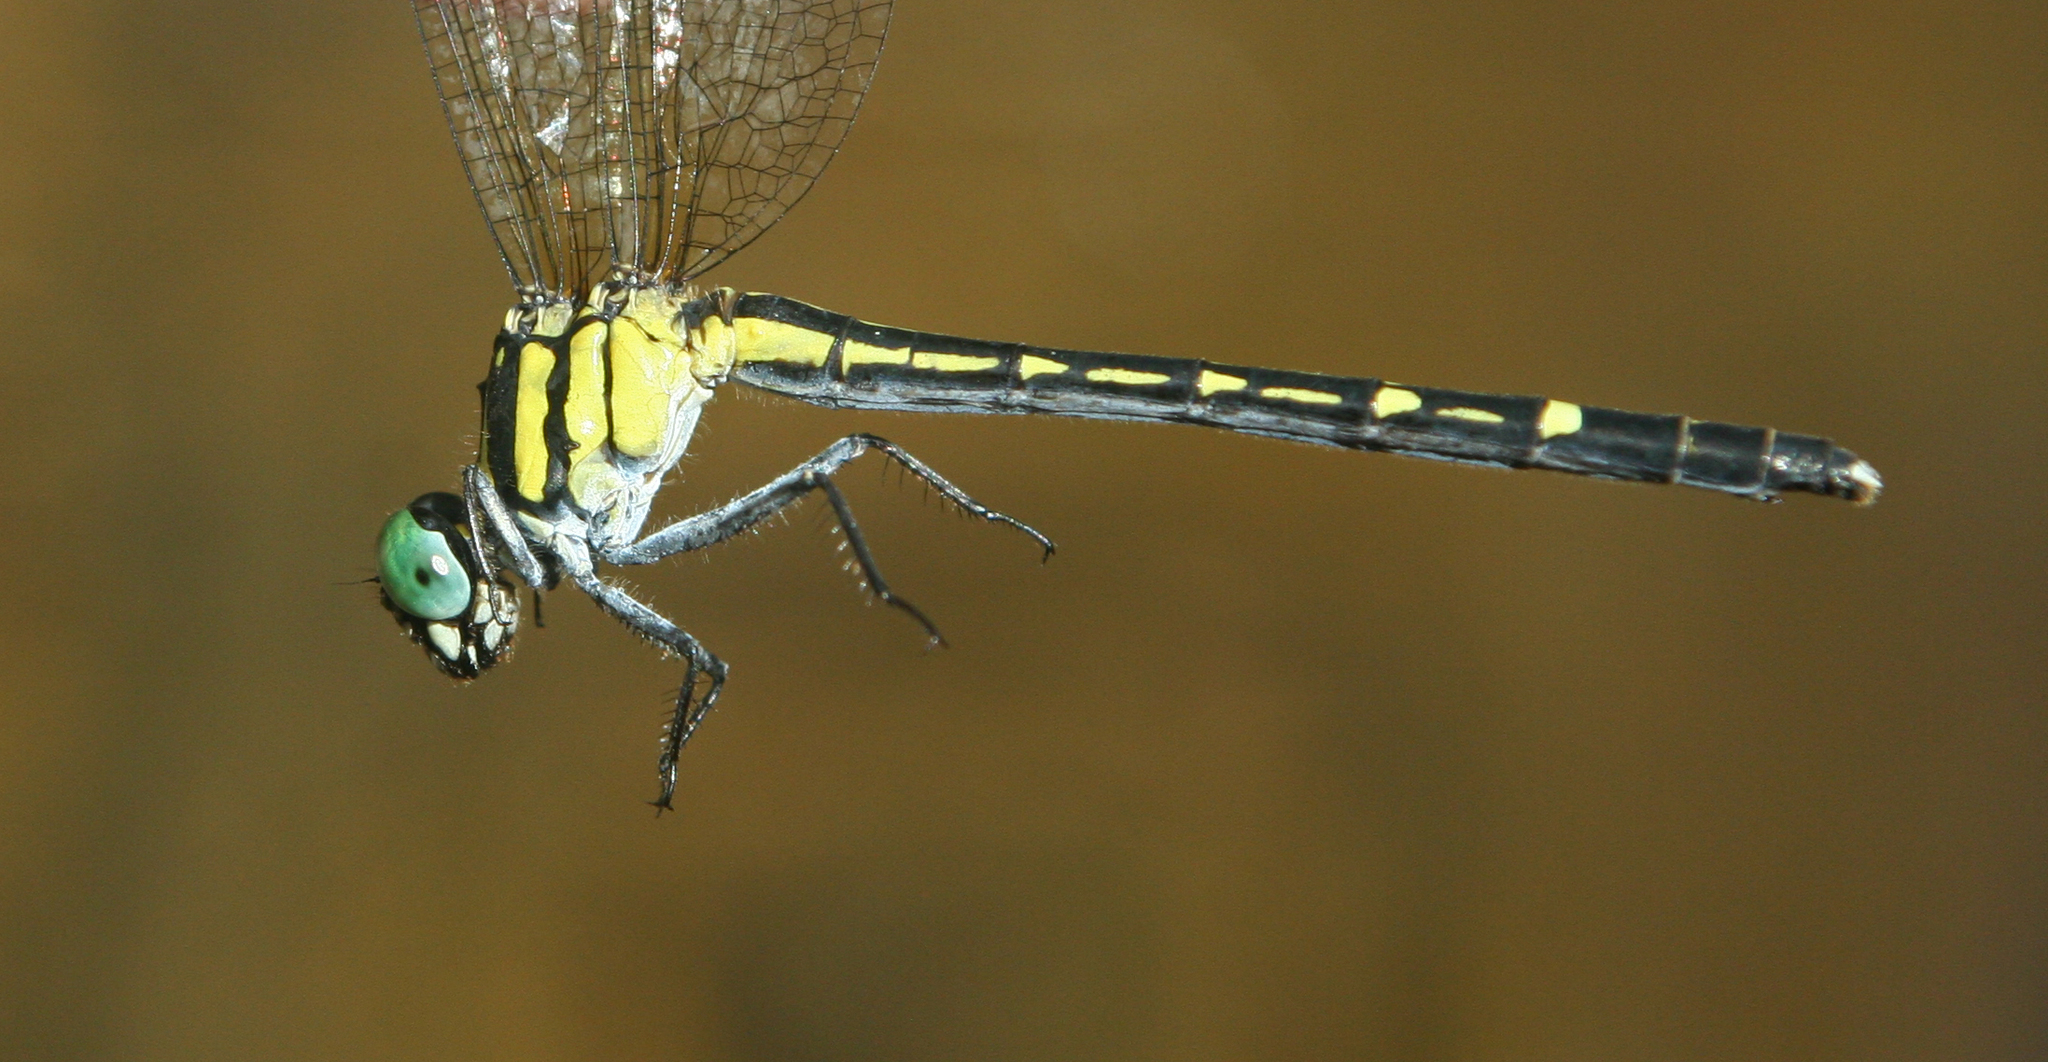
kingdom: Animalia
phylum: Arthropoda
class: Insecta
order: Odonata
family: Gomphidae
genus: Microgomphus
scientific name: Microgomphus alani
